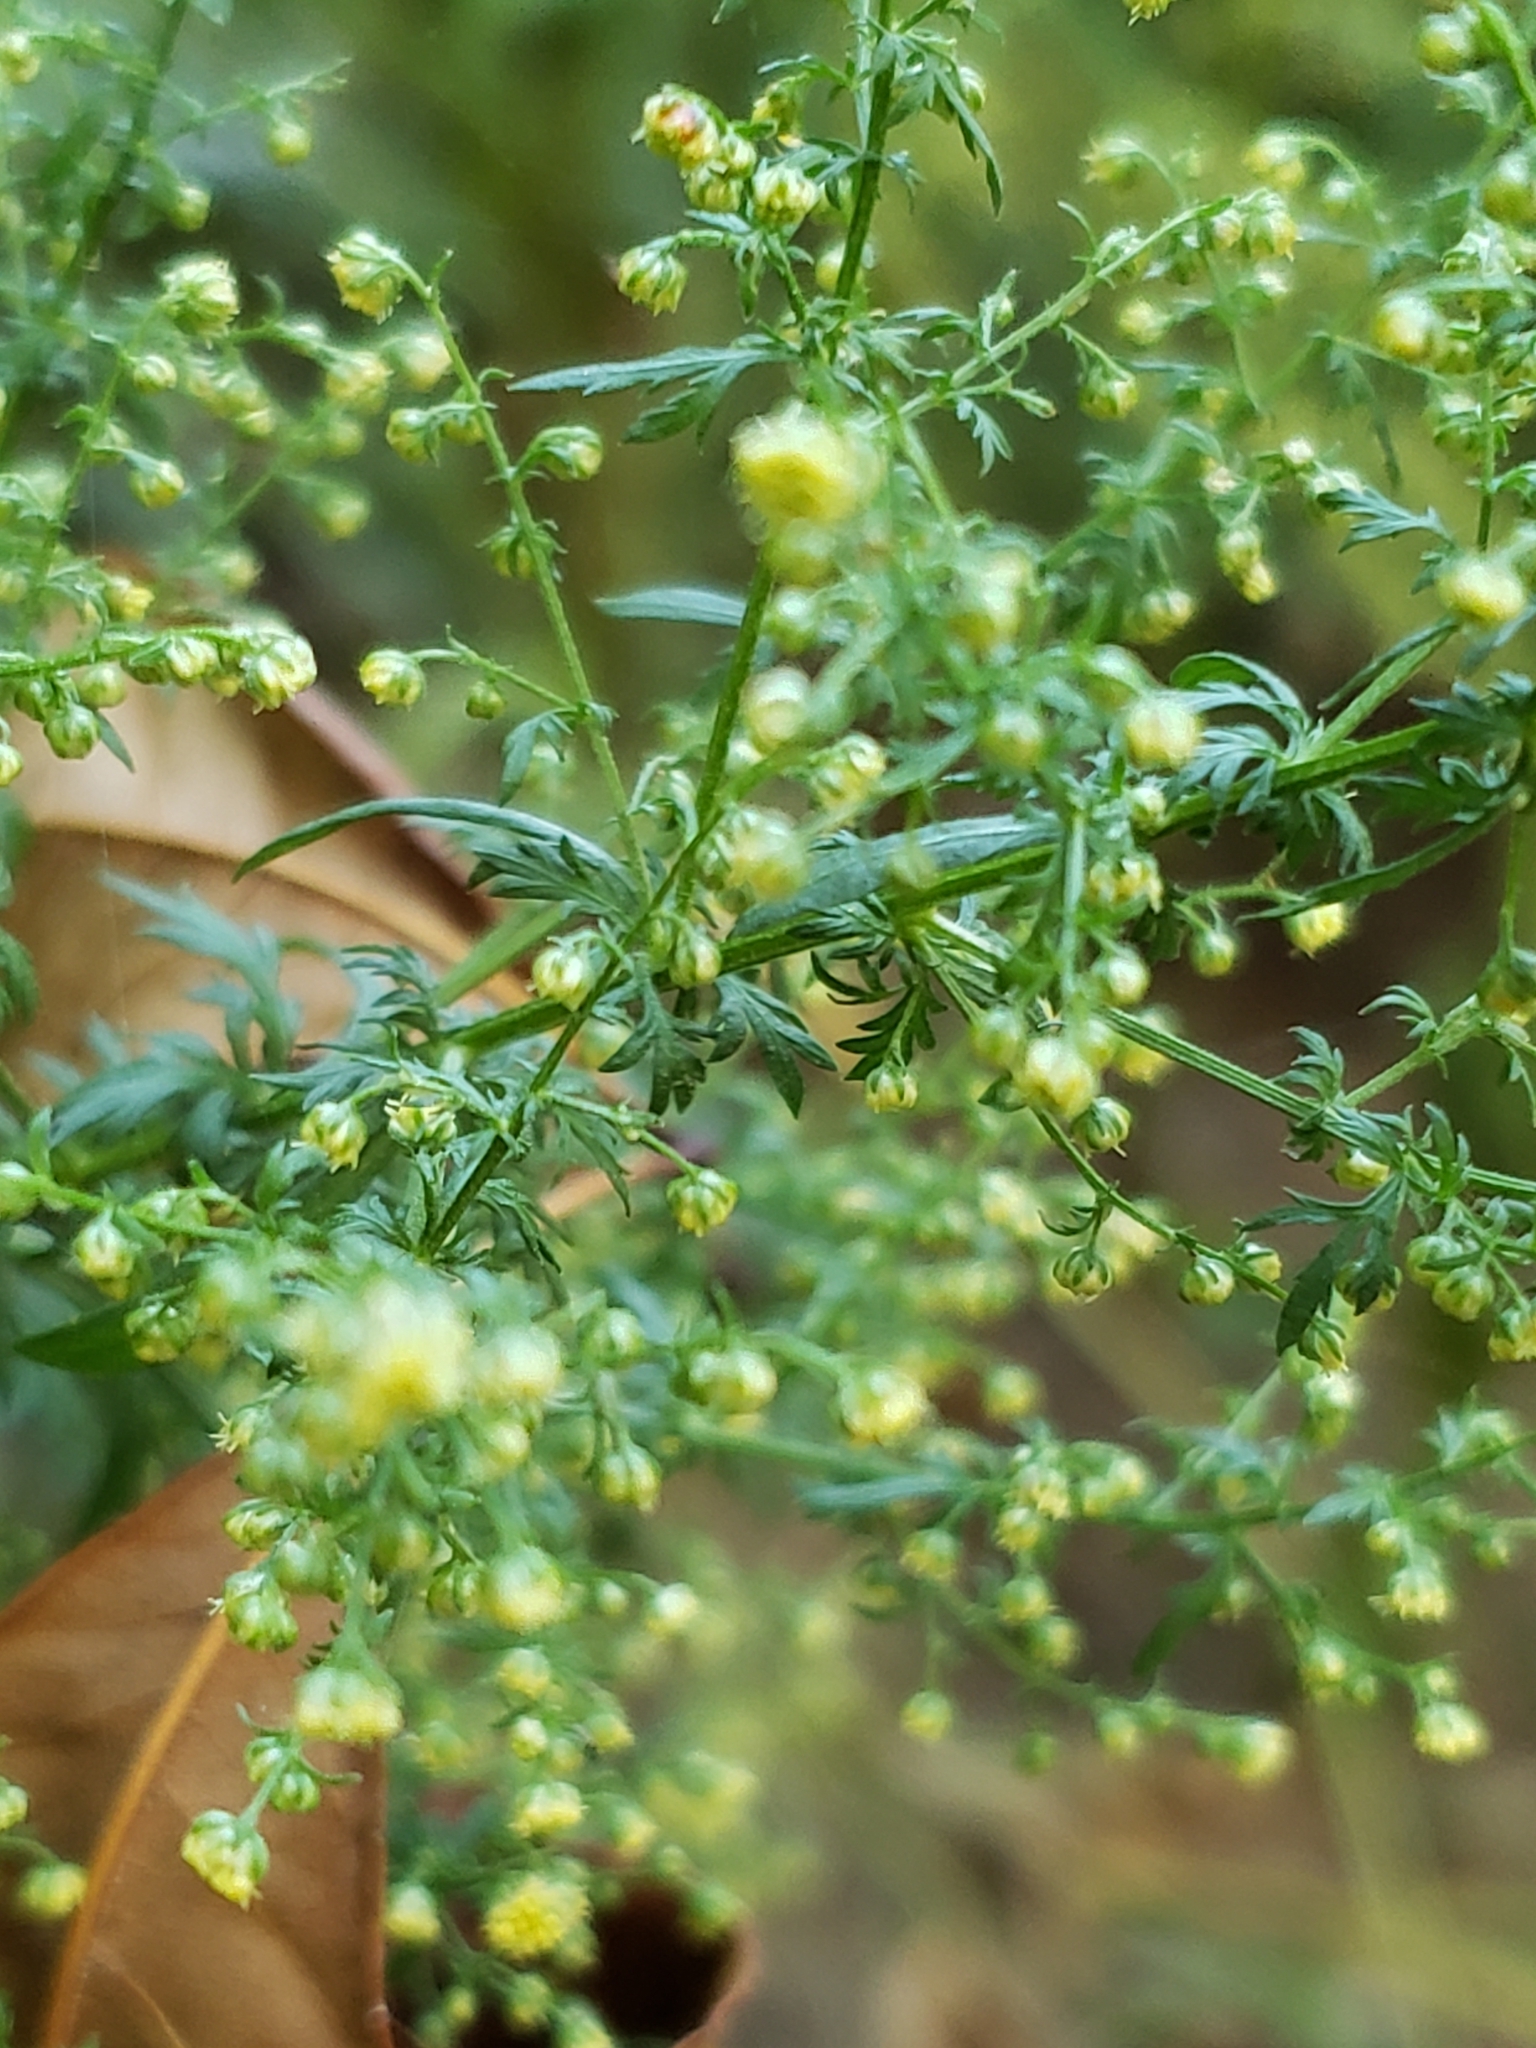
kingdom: Plantae
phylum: Tracheophyta
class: Magnoliopsida
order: Asterales
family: Asteraceae
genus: Artemisia
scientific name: Artemisia annua
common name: Sweet sagewort
